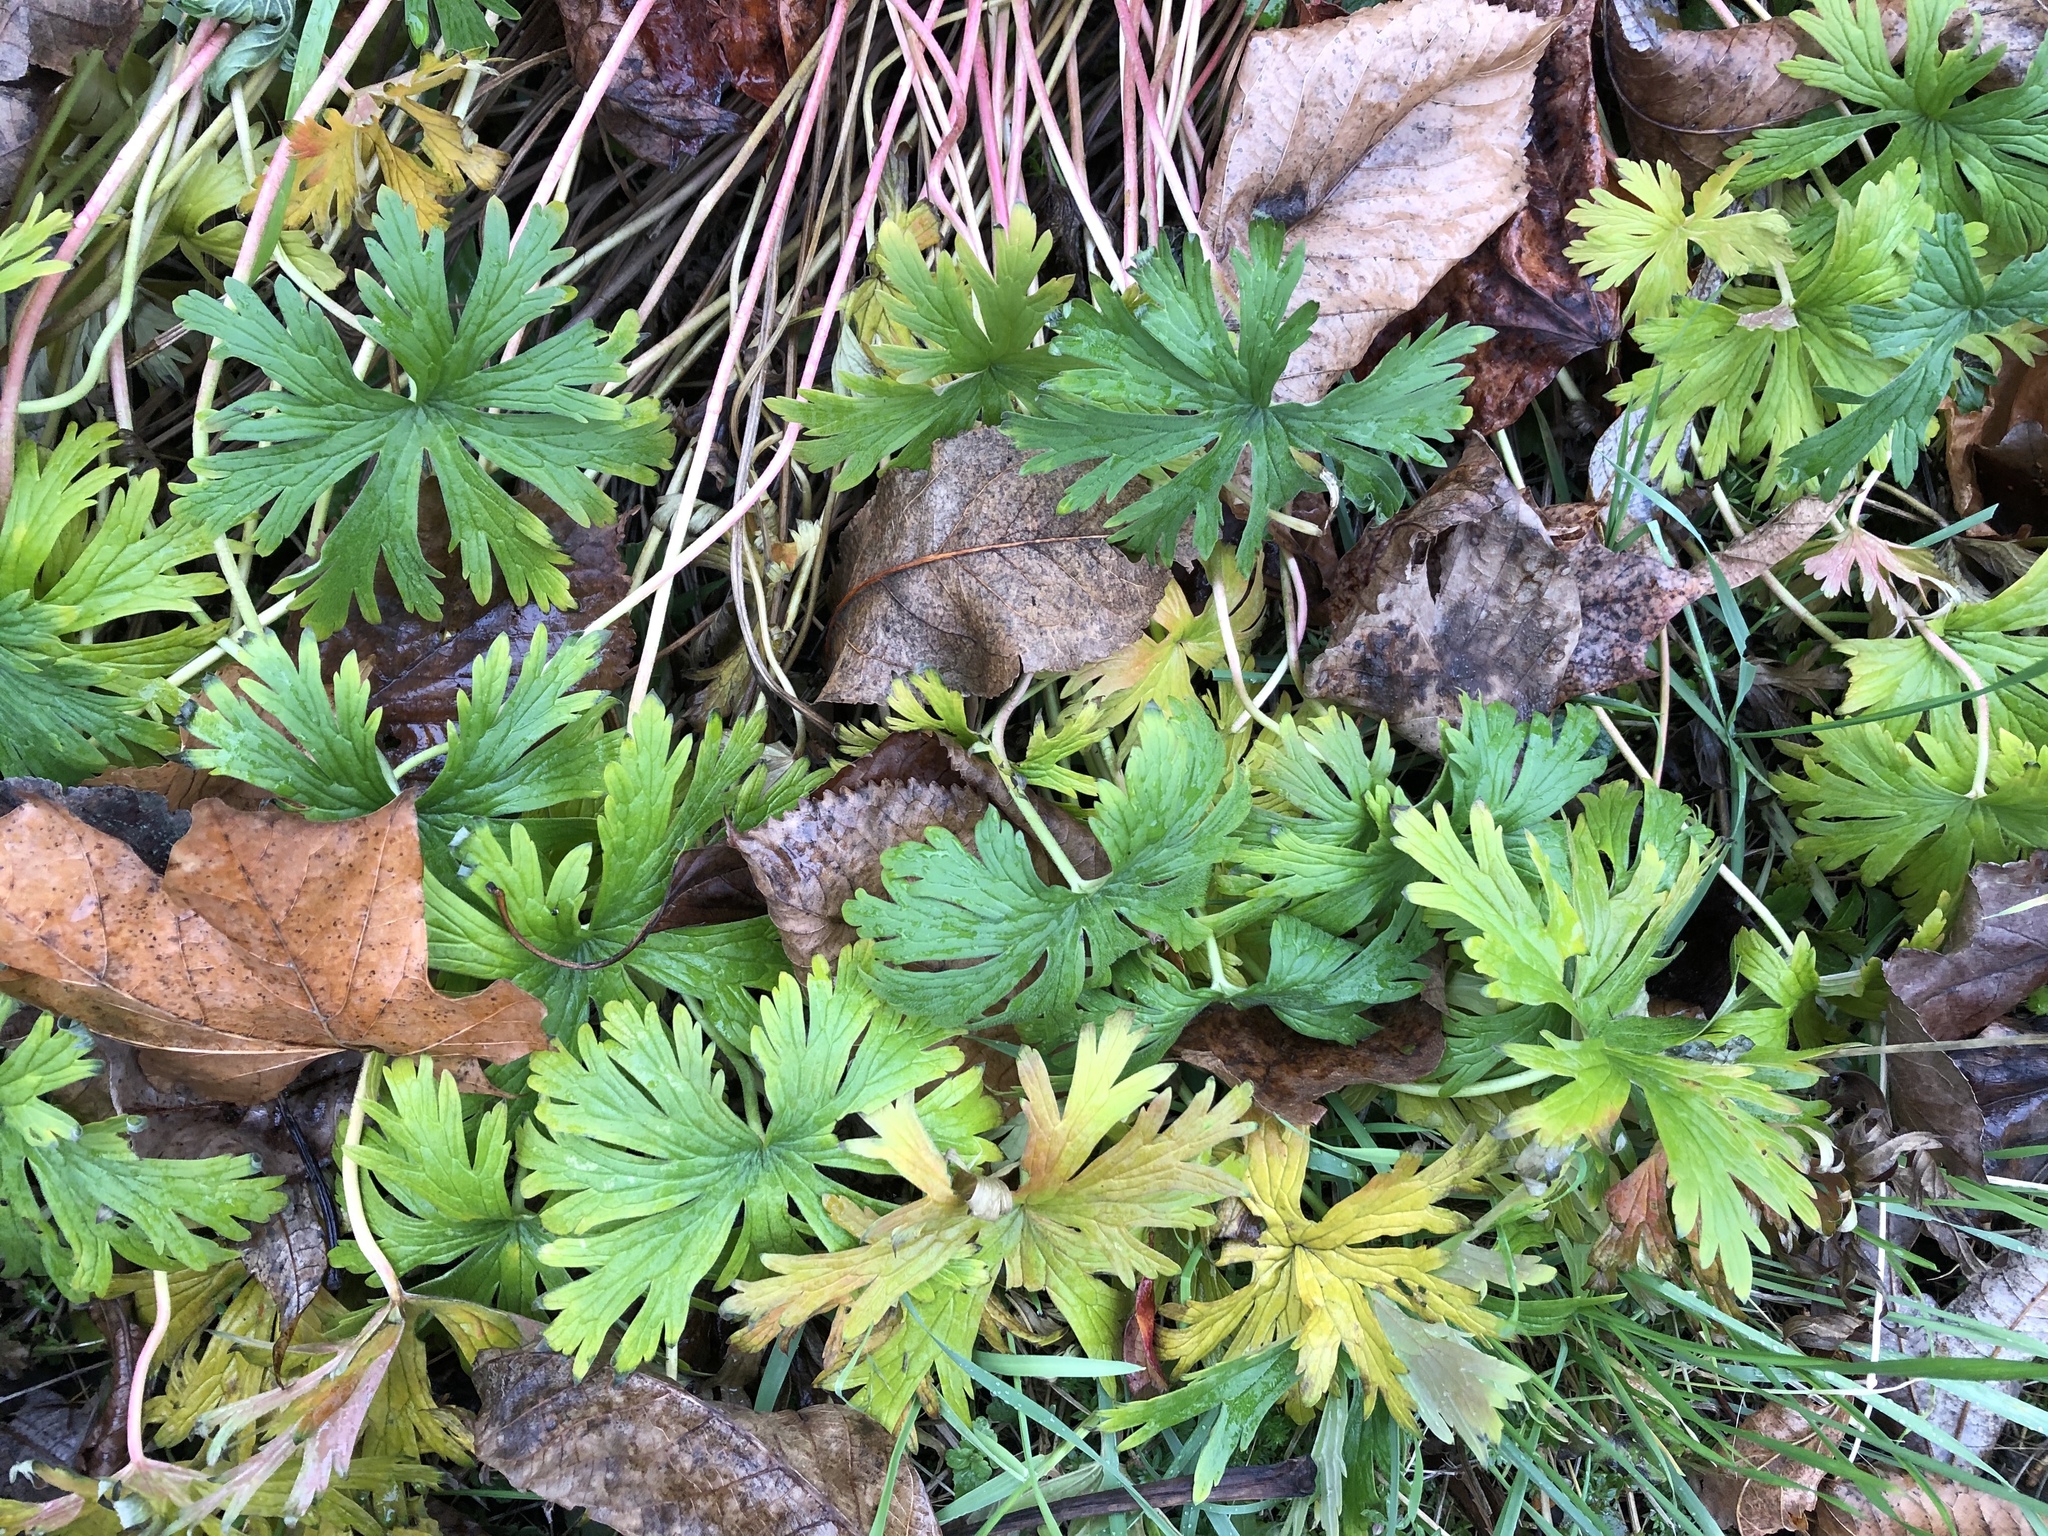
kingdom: Plantae
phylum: Tracheophyta
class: Magnoliopsida
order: Geraniales
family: Geraniaceae
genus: Geranium
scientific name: Geranium pratense
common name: Meadow crane's-bill
